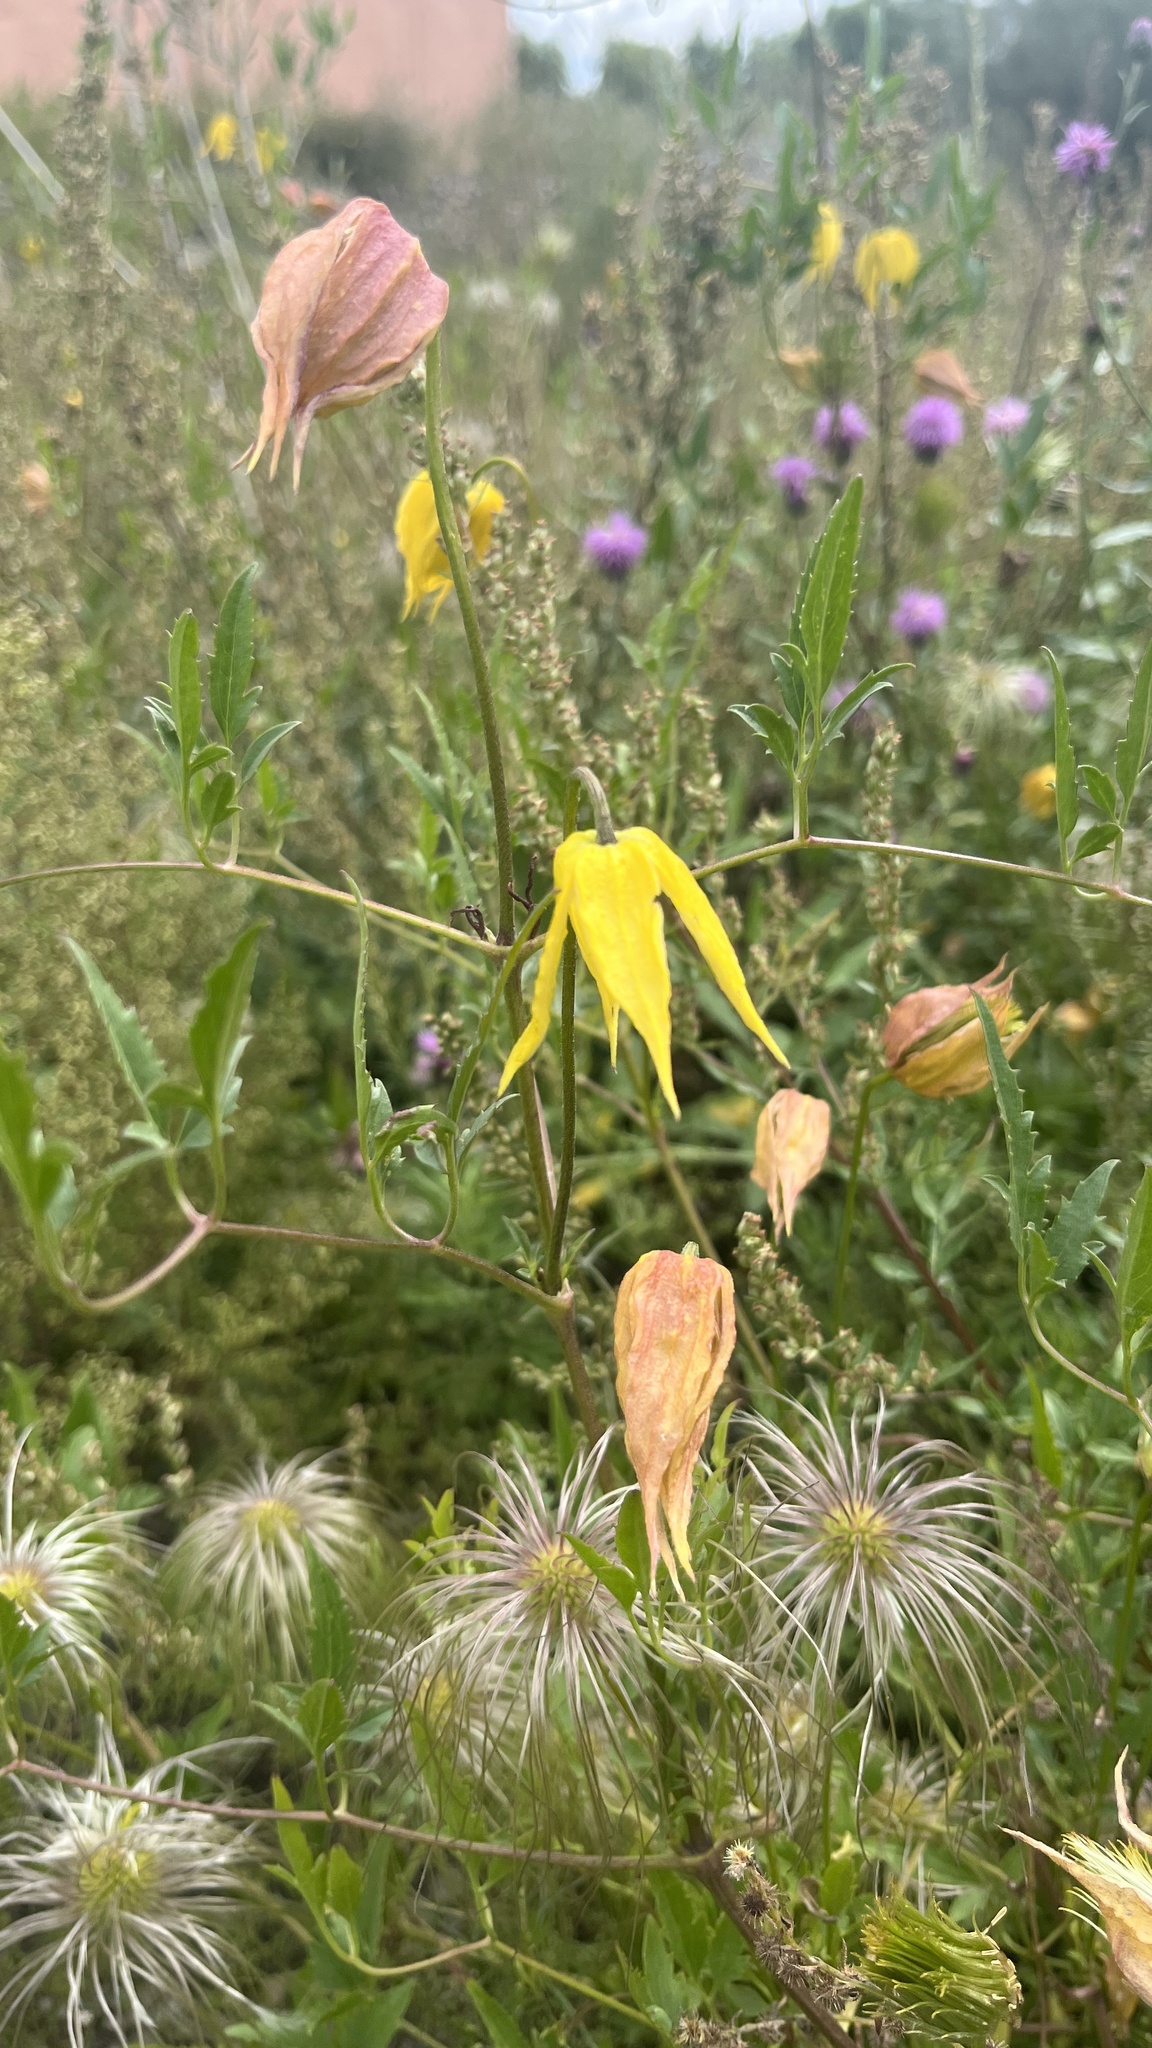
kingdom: Plantae
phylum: Tracheophyta
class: Magnoliopsida
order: Ranunculales
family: Ranunculaceae
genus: Clematis
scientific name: Clematis tangutica
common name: Orange-peel clematis
